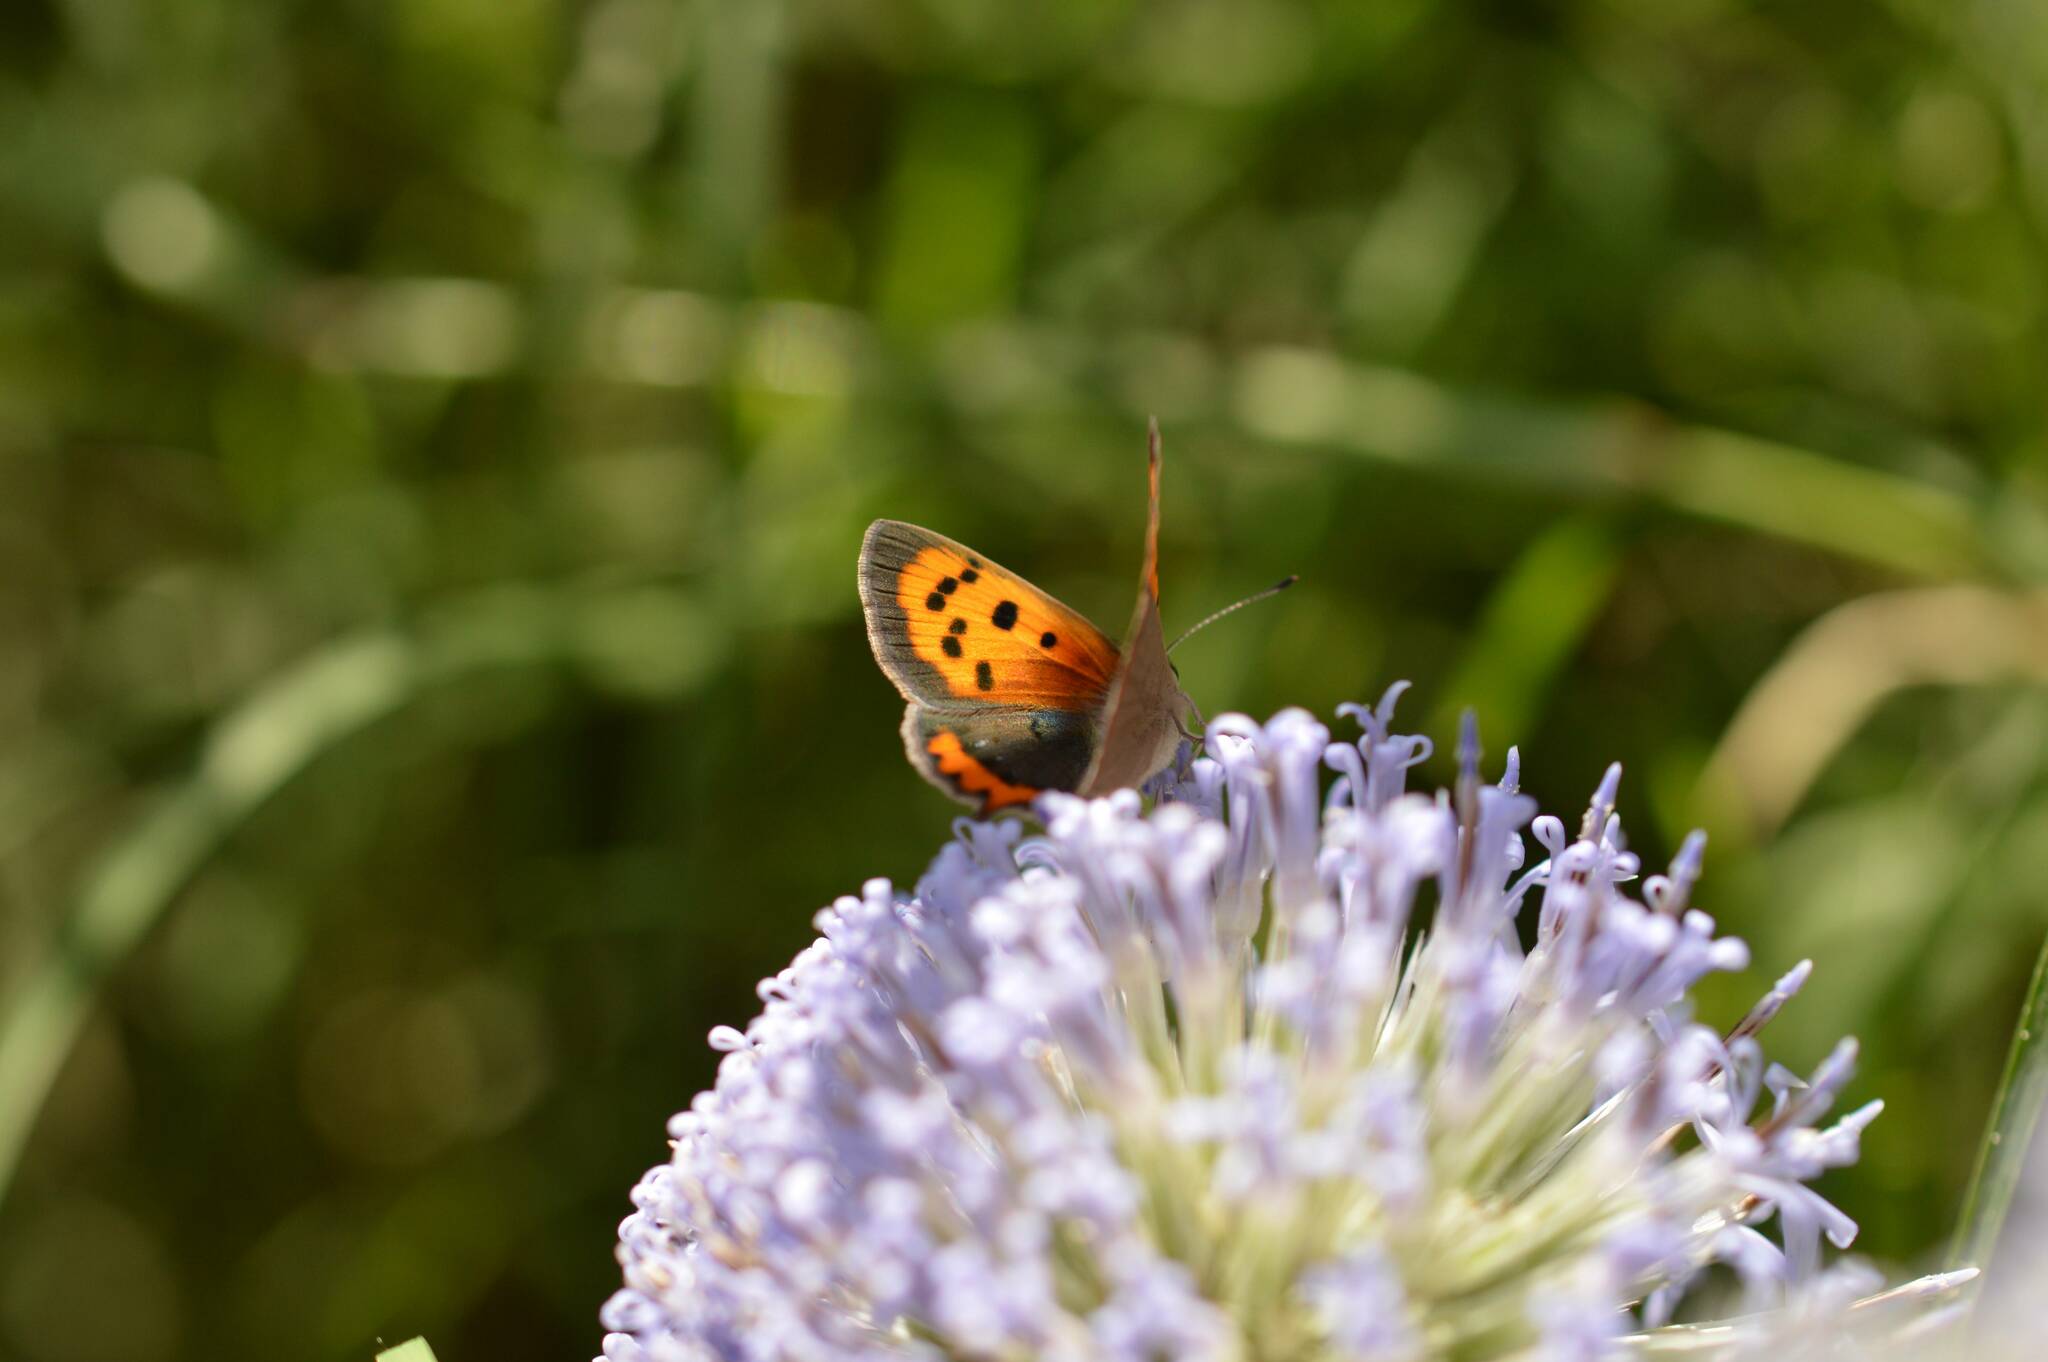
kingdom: Animalia
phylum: Arthropoda
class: Insecta
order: Lepidoptera
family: Lycaenidae
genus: Lycaena
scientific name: Lycaena phlaeas
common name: Small copper
